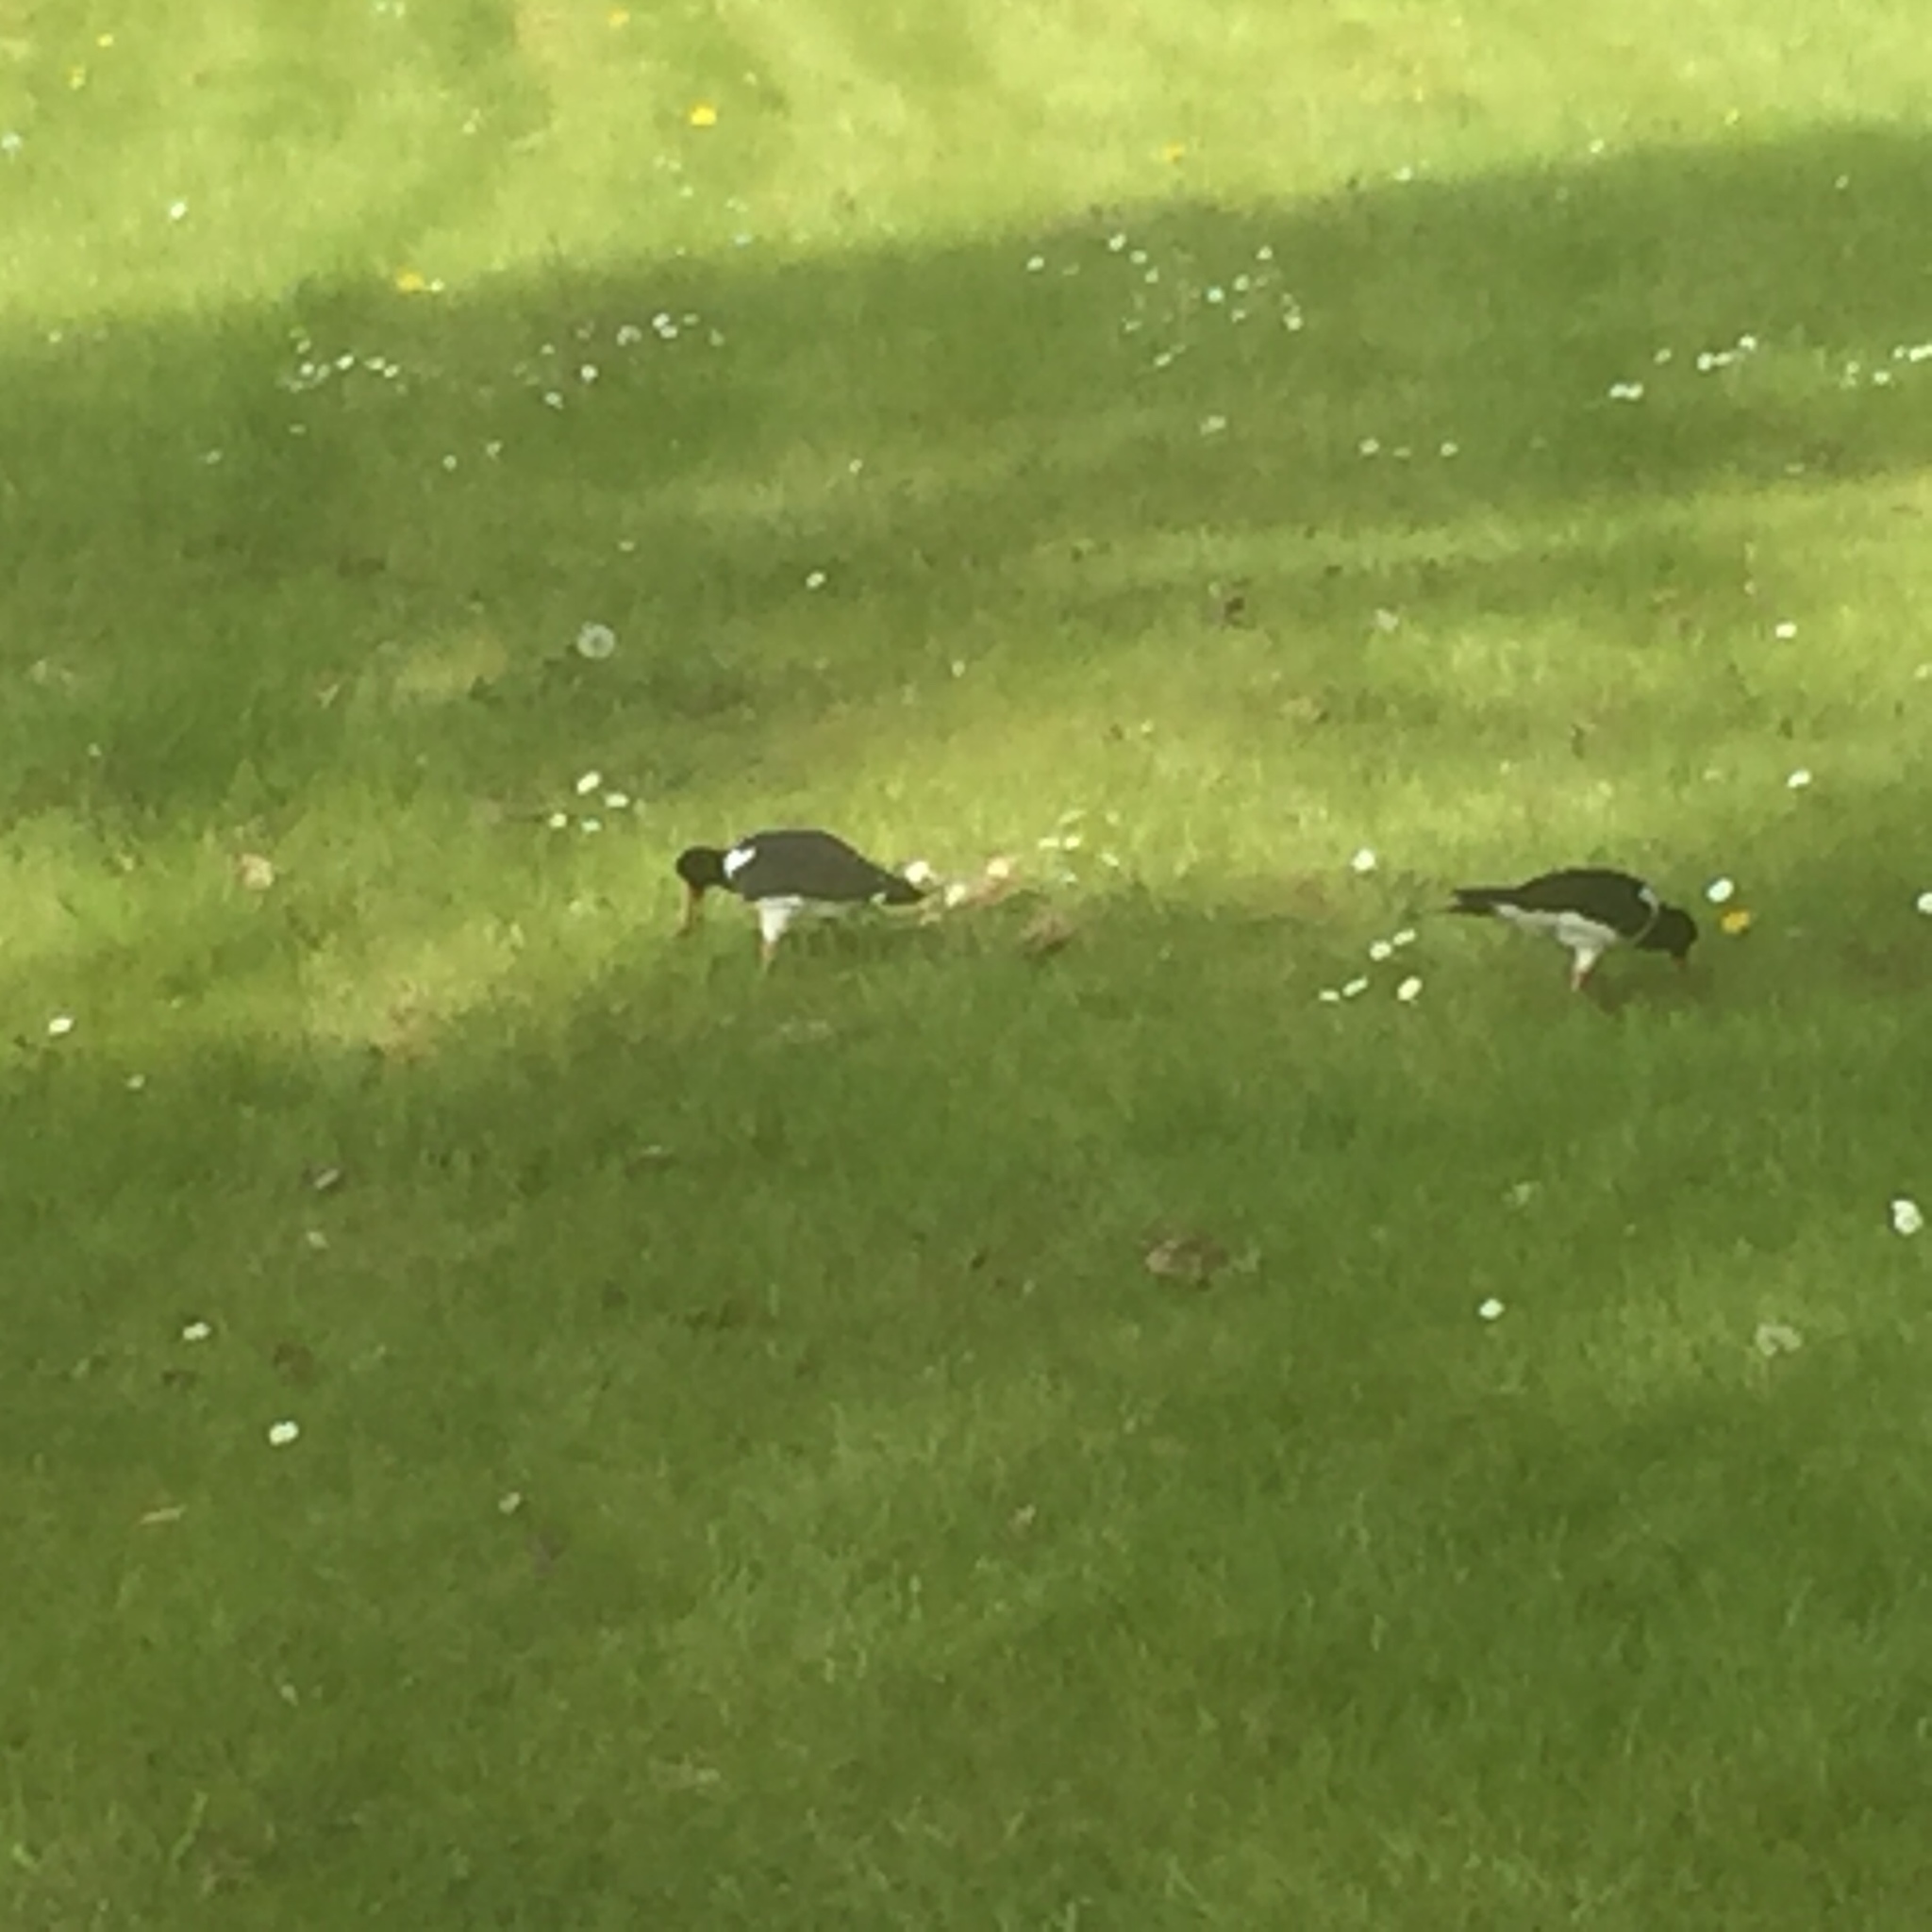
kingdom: Animalia
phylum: Chordata
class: Aves
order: Charadriiformes
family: Haematopodidae
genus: Haematopus
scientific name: Haematopus ostralegus
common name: Eurasian oystercatcher
